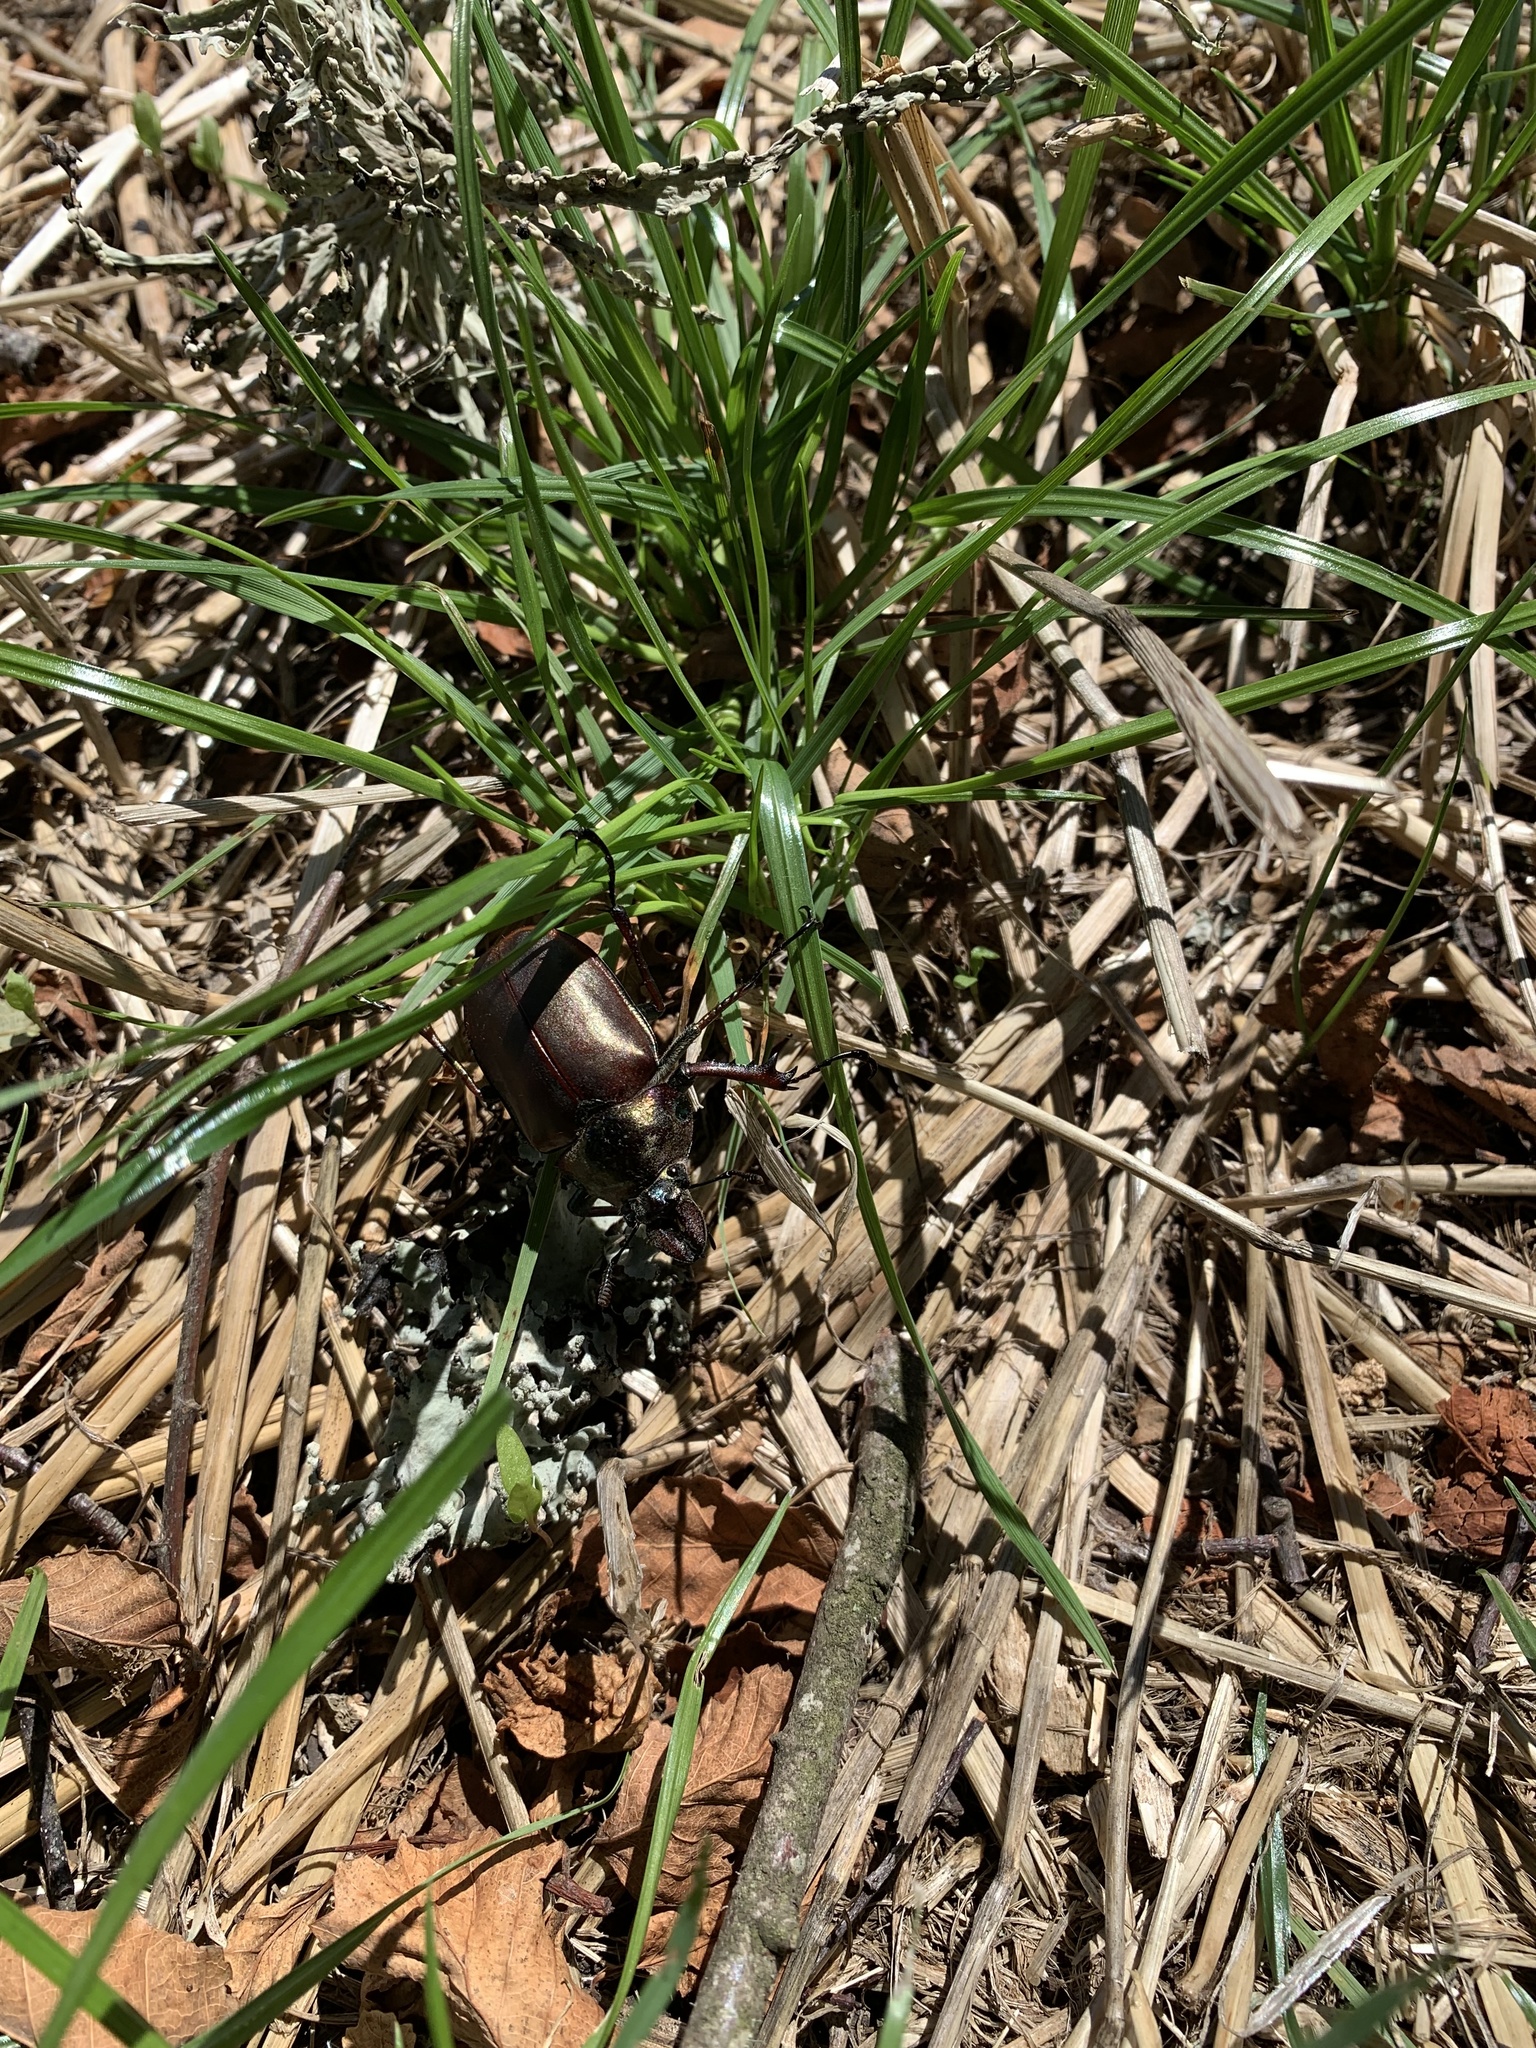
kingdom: Animalia
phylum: Arthropoda
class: Insecta
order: Coleoptera
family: Lucanidae
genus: Chiasognathus
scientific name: Chiasognathus grantii
